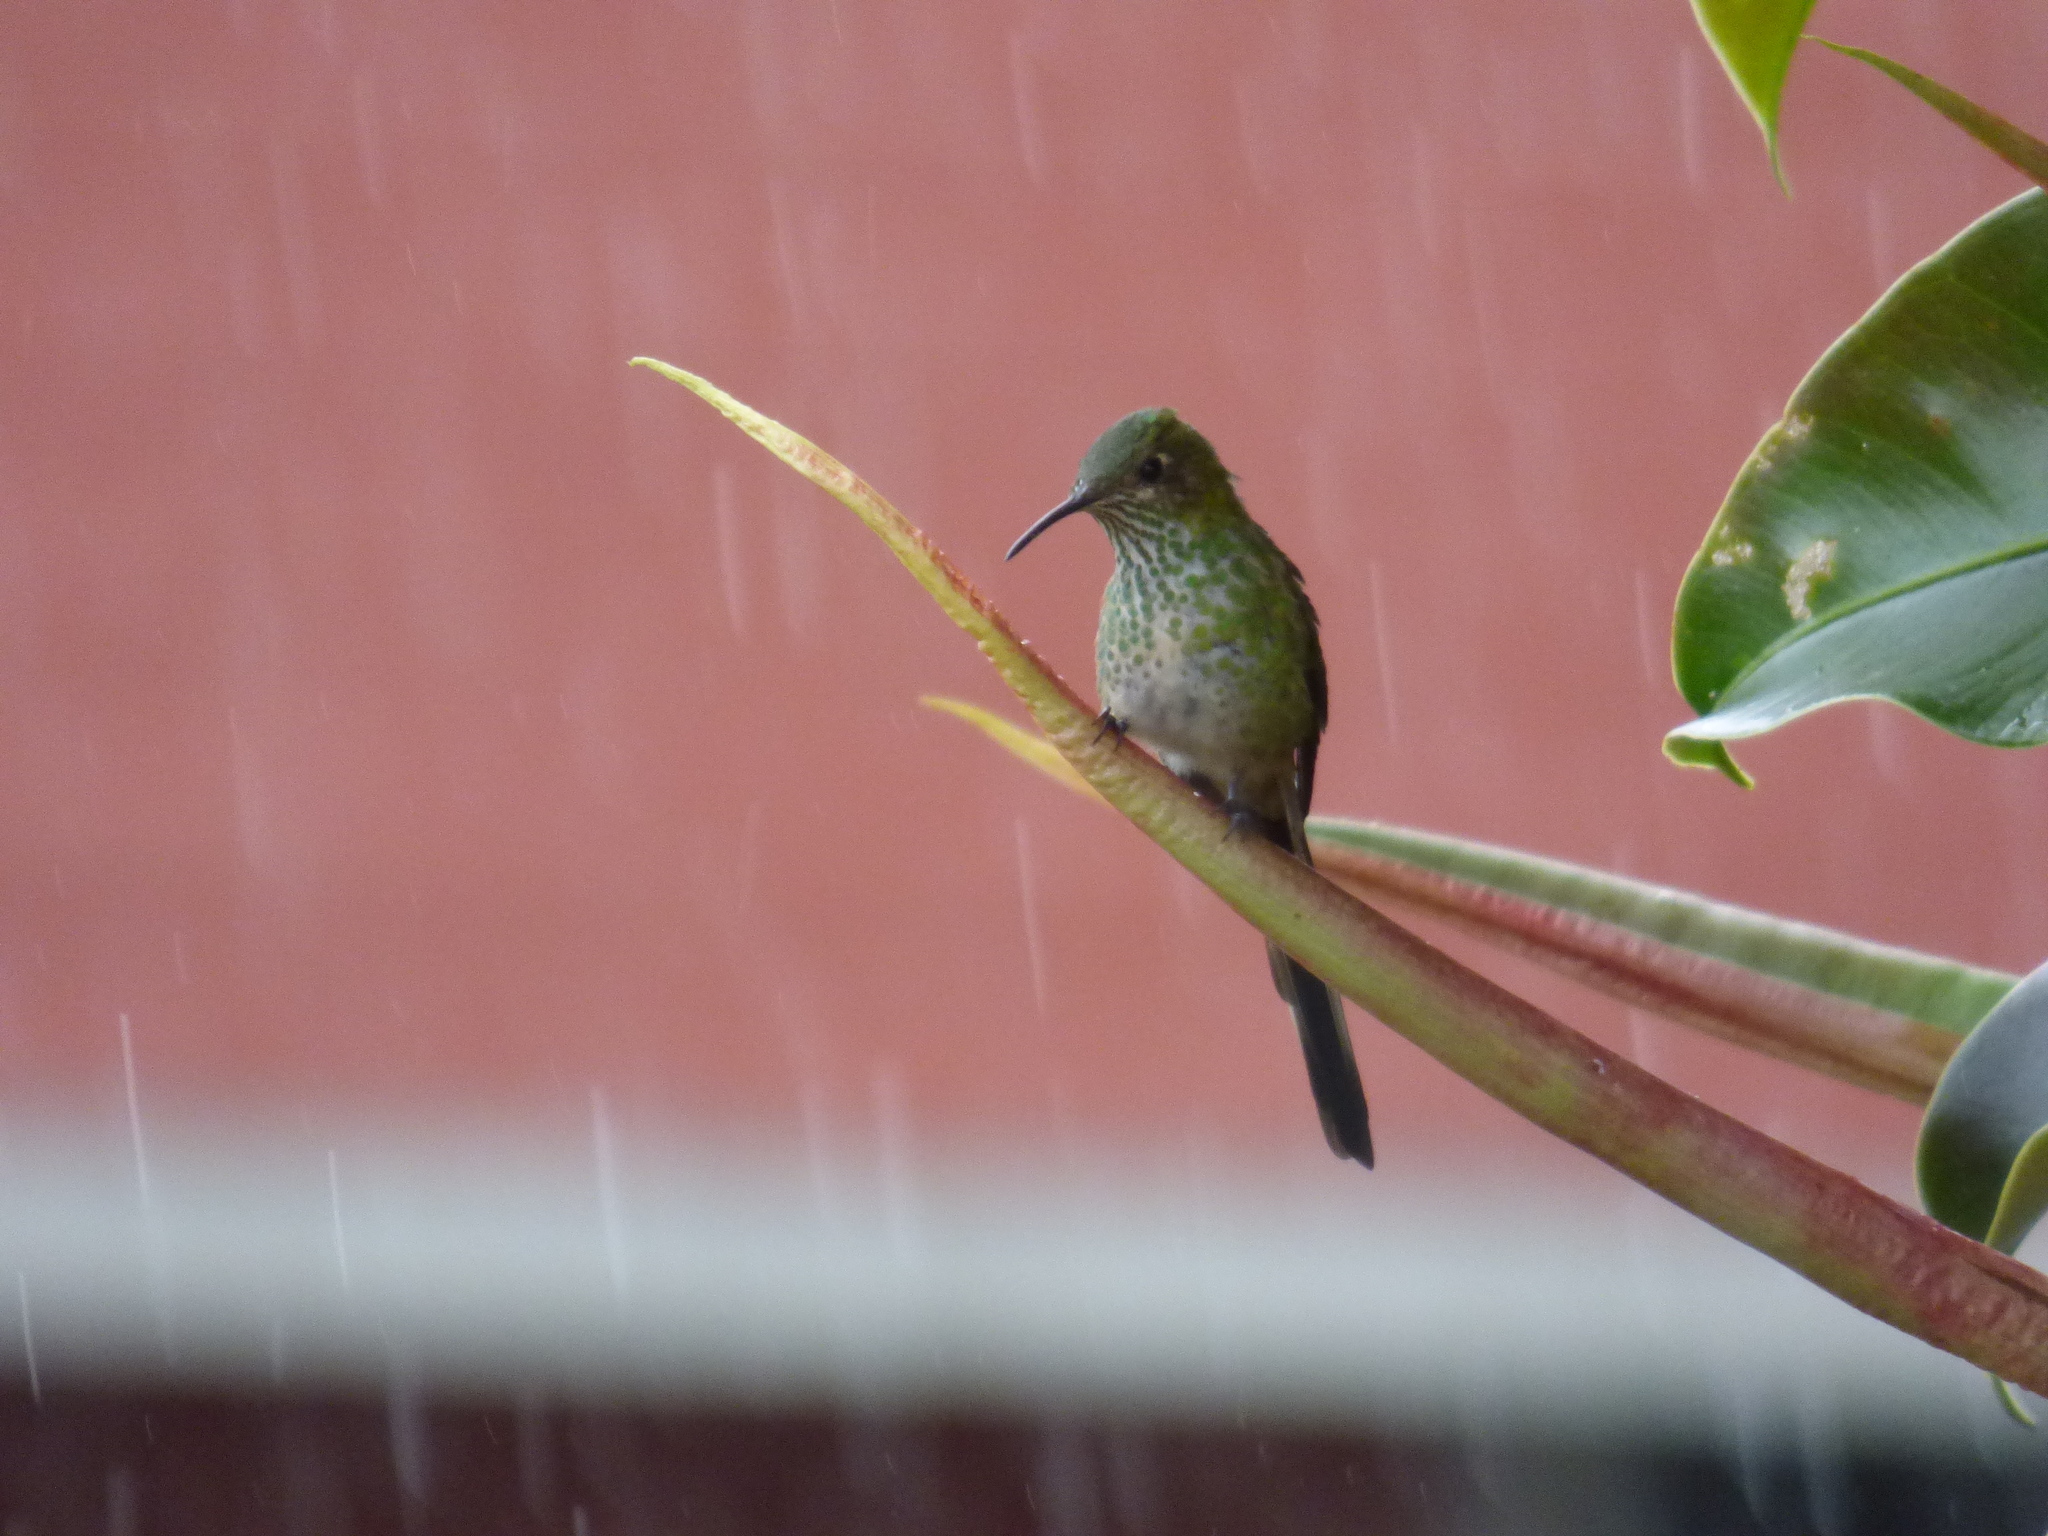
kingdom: Animalia
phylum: Chordata
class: Aves
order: Apodiformes
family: Trochilidae
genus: Lesbia
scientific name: Lesbia victoriae
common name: Black-tailed trainbearer
